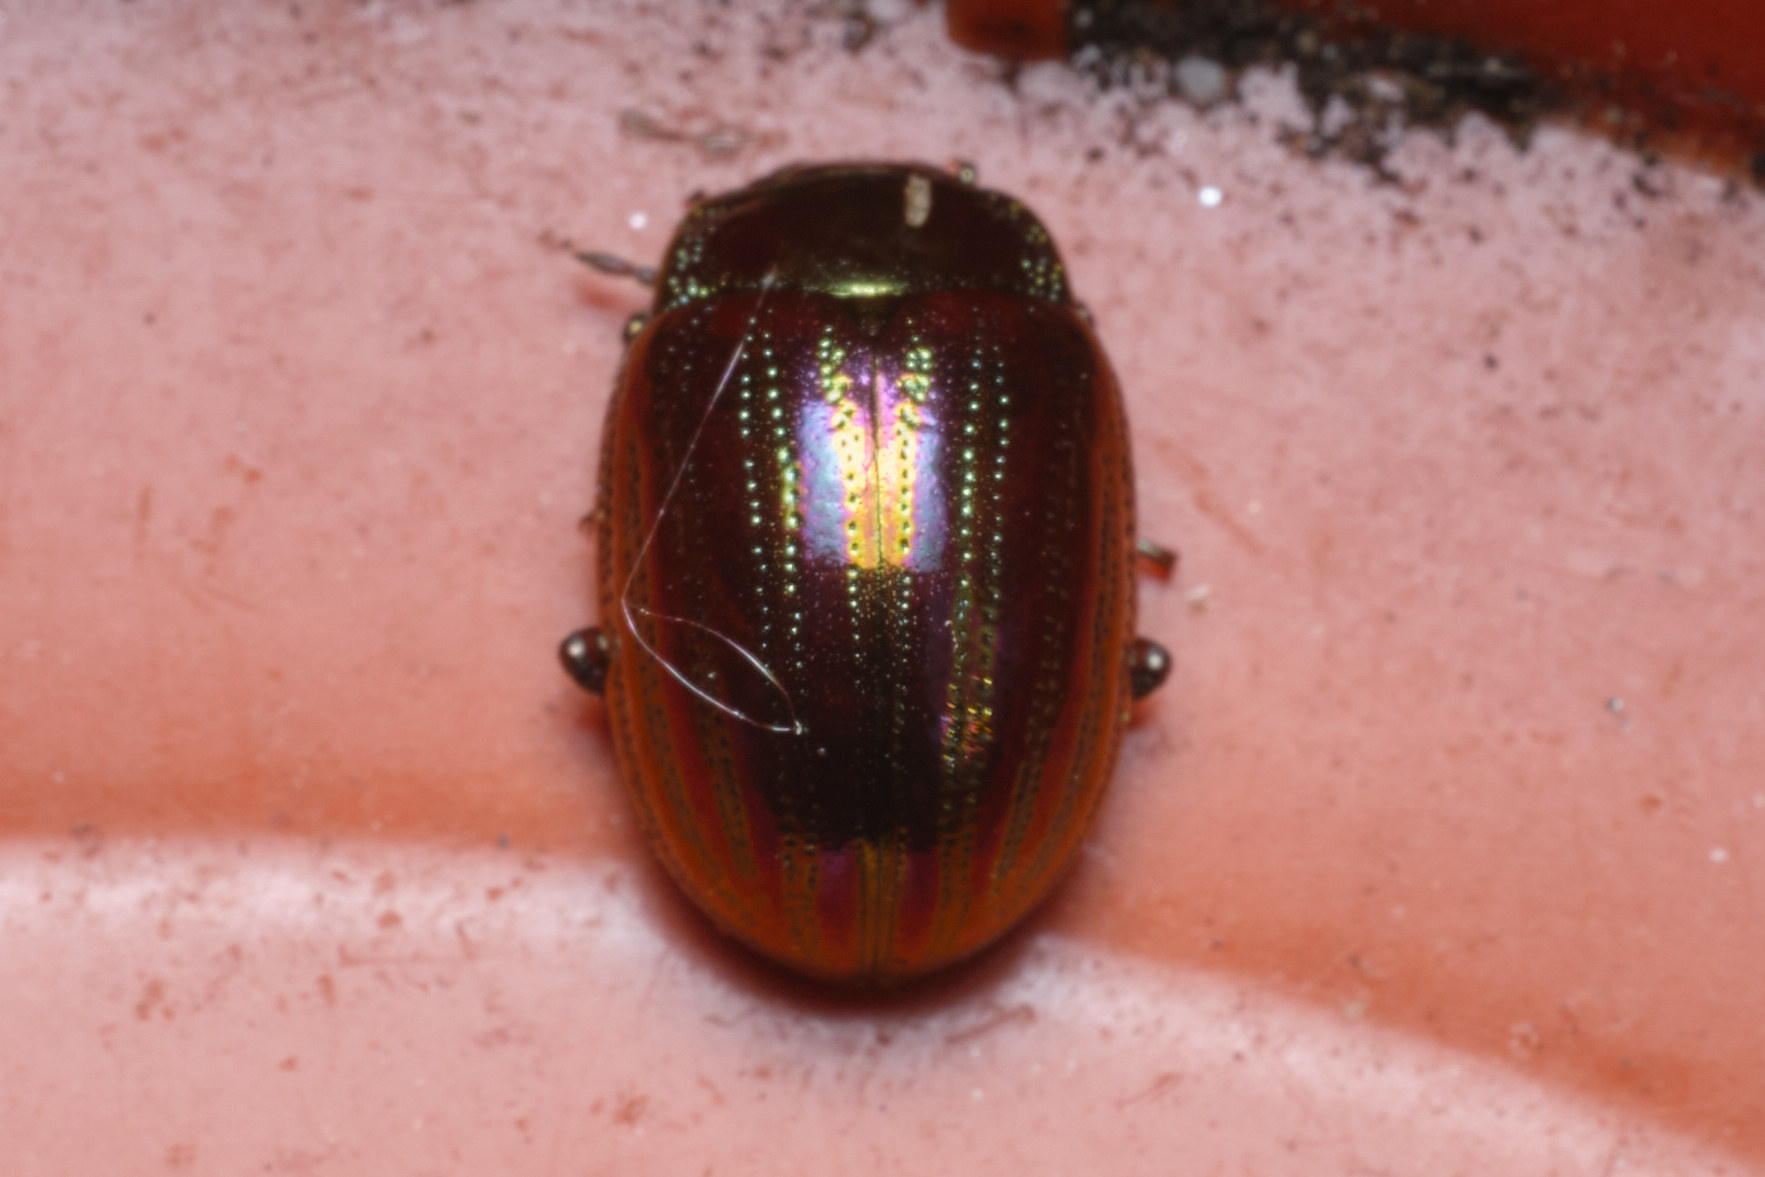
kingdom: Animalia
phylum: Arthropoda
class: Insecta
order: Coleoptera
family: Chrysomelidae
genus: Chrysolina
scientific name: Chrysolina americana
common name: Rosemary beetle
